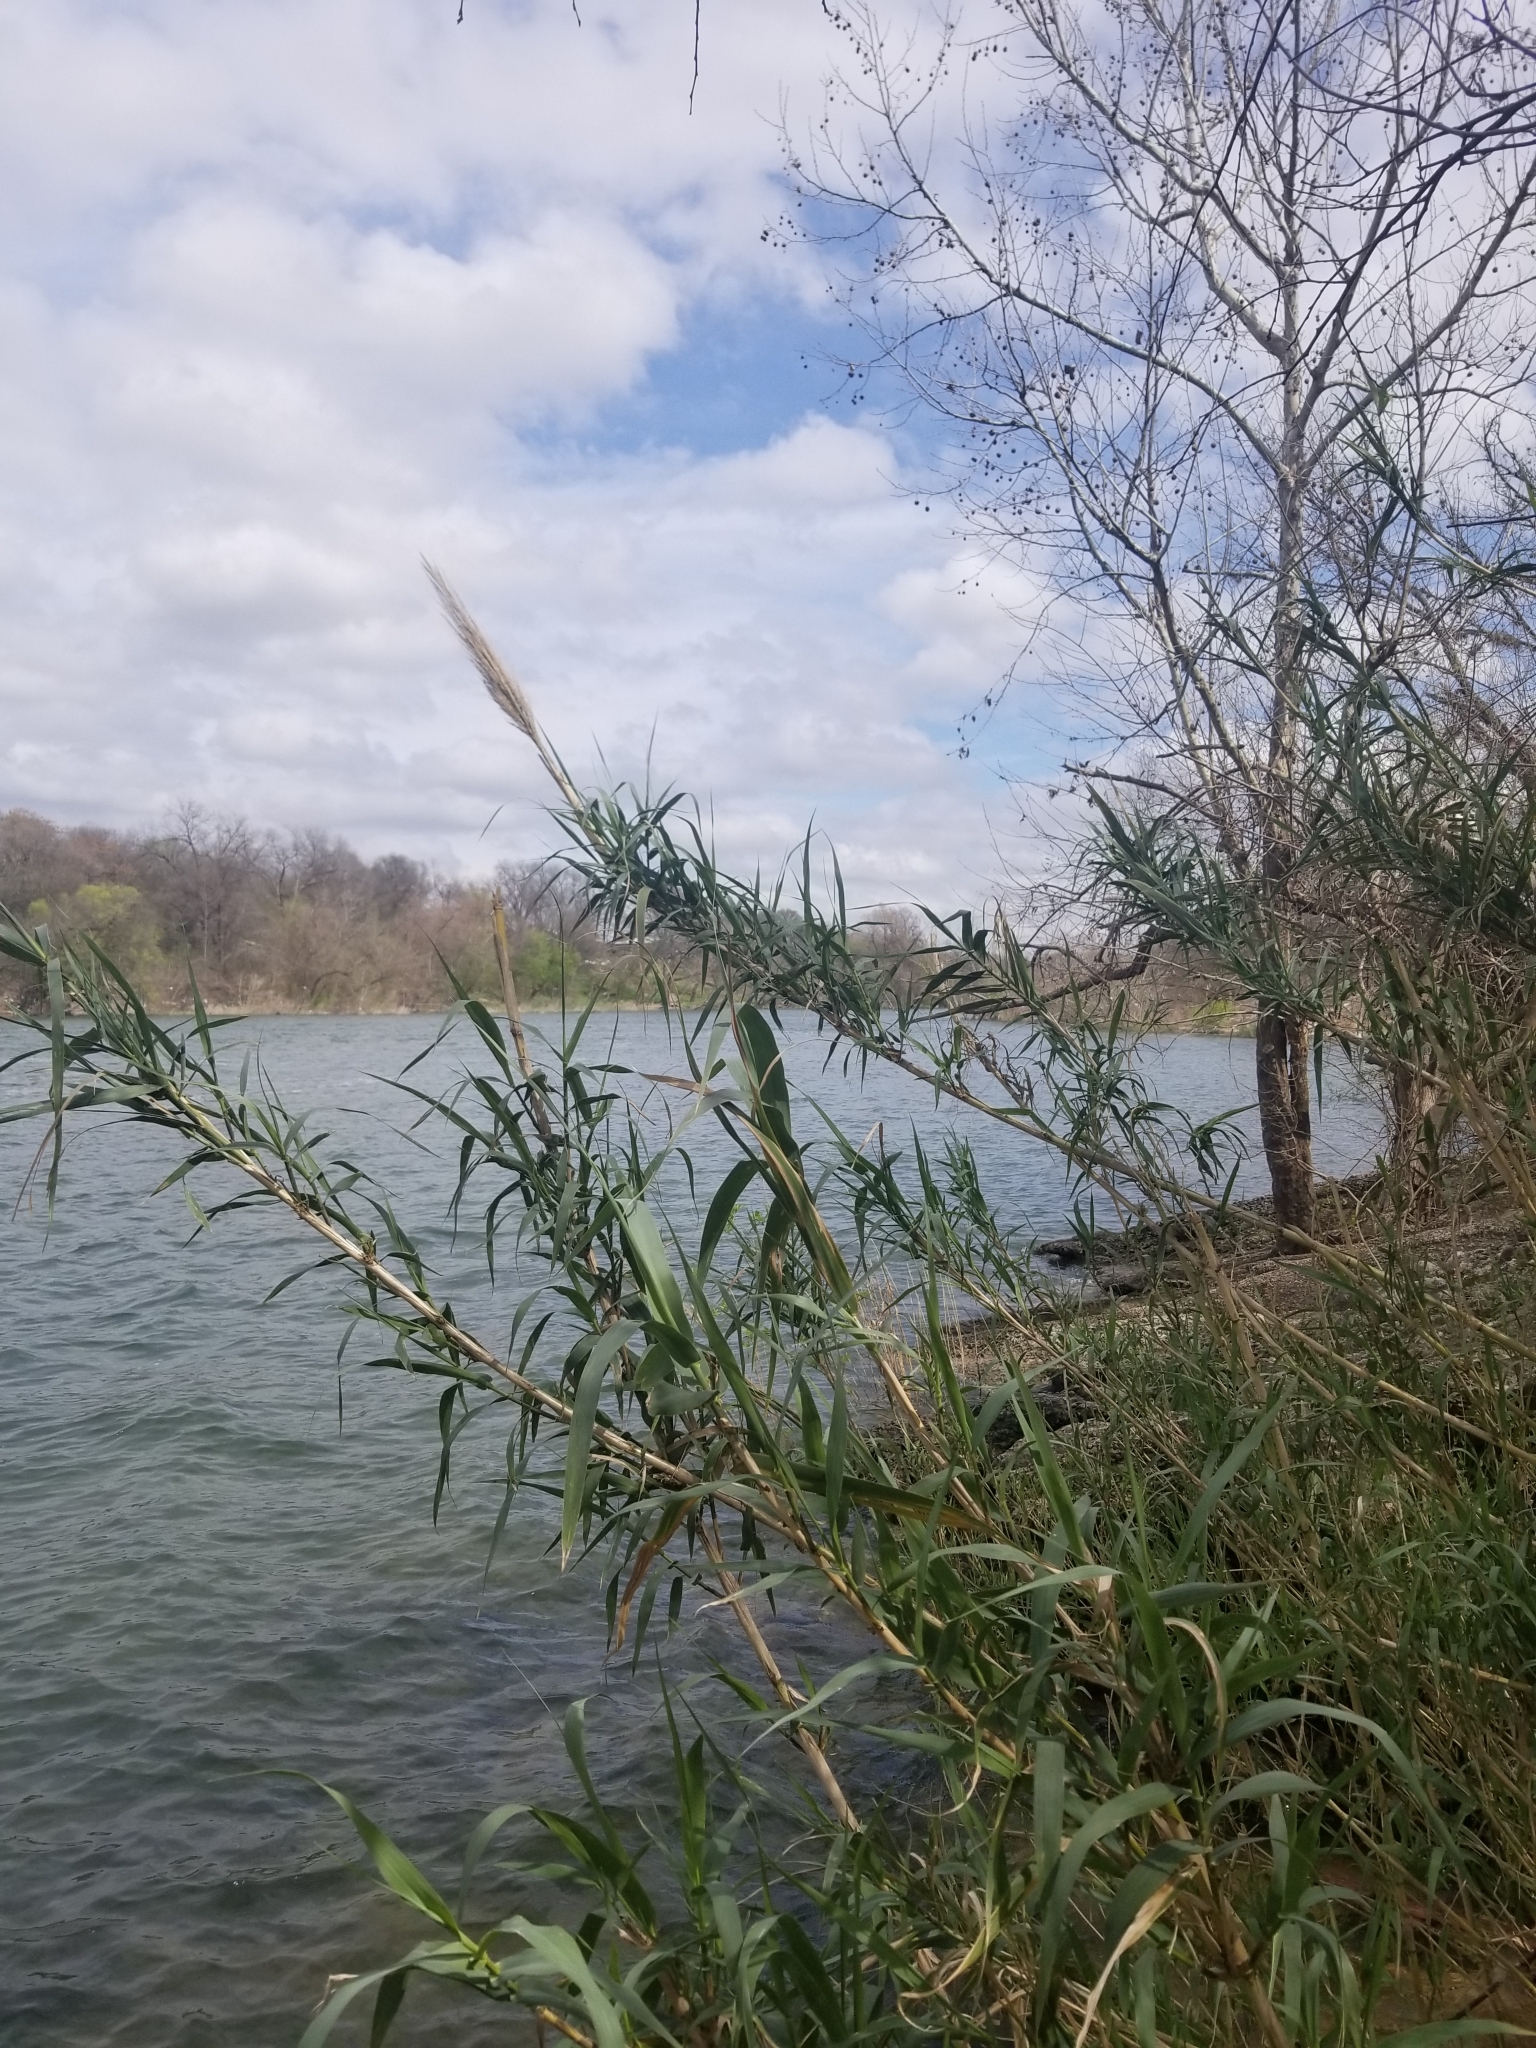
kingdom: Plantae
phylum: Tracheophyta
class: Liliopsida
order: Poales
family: Poaceae
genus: Arundo
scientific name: Arundo donax
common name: Giant reed
